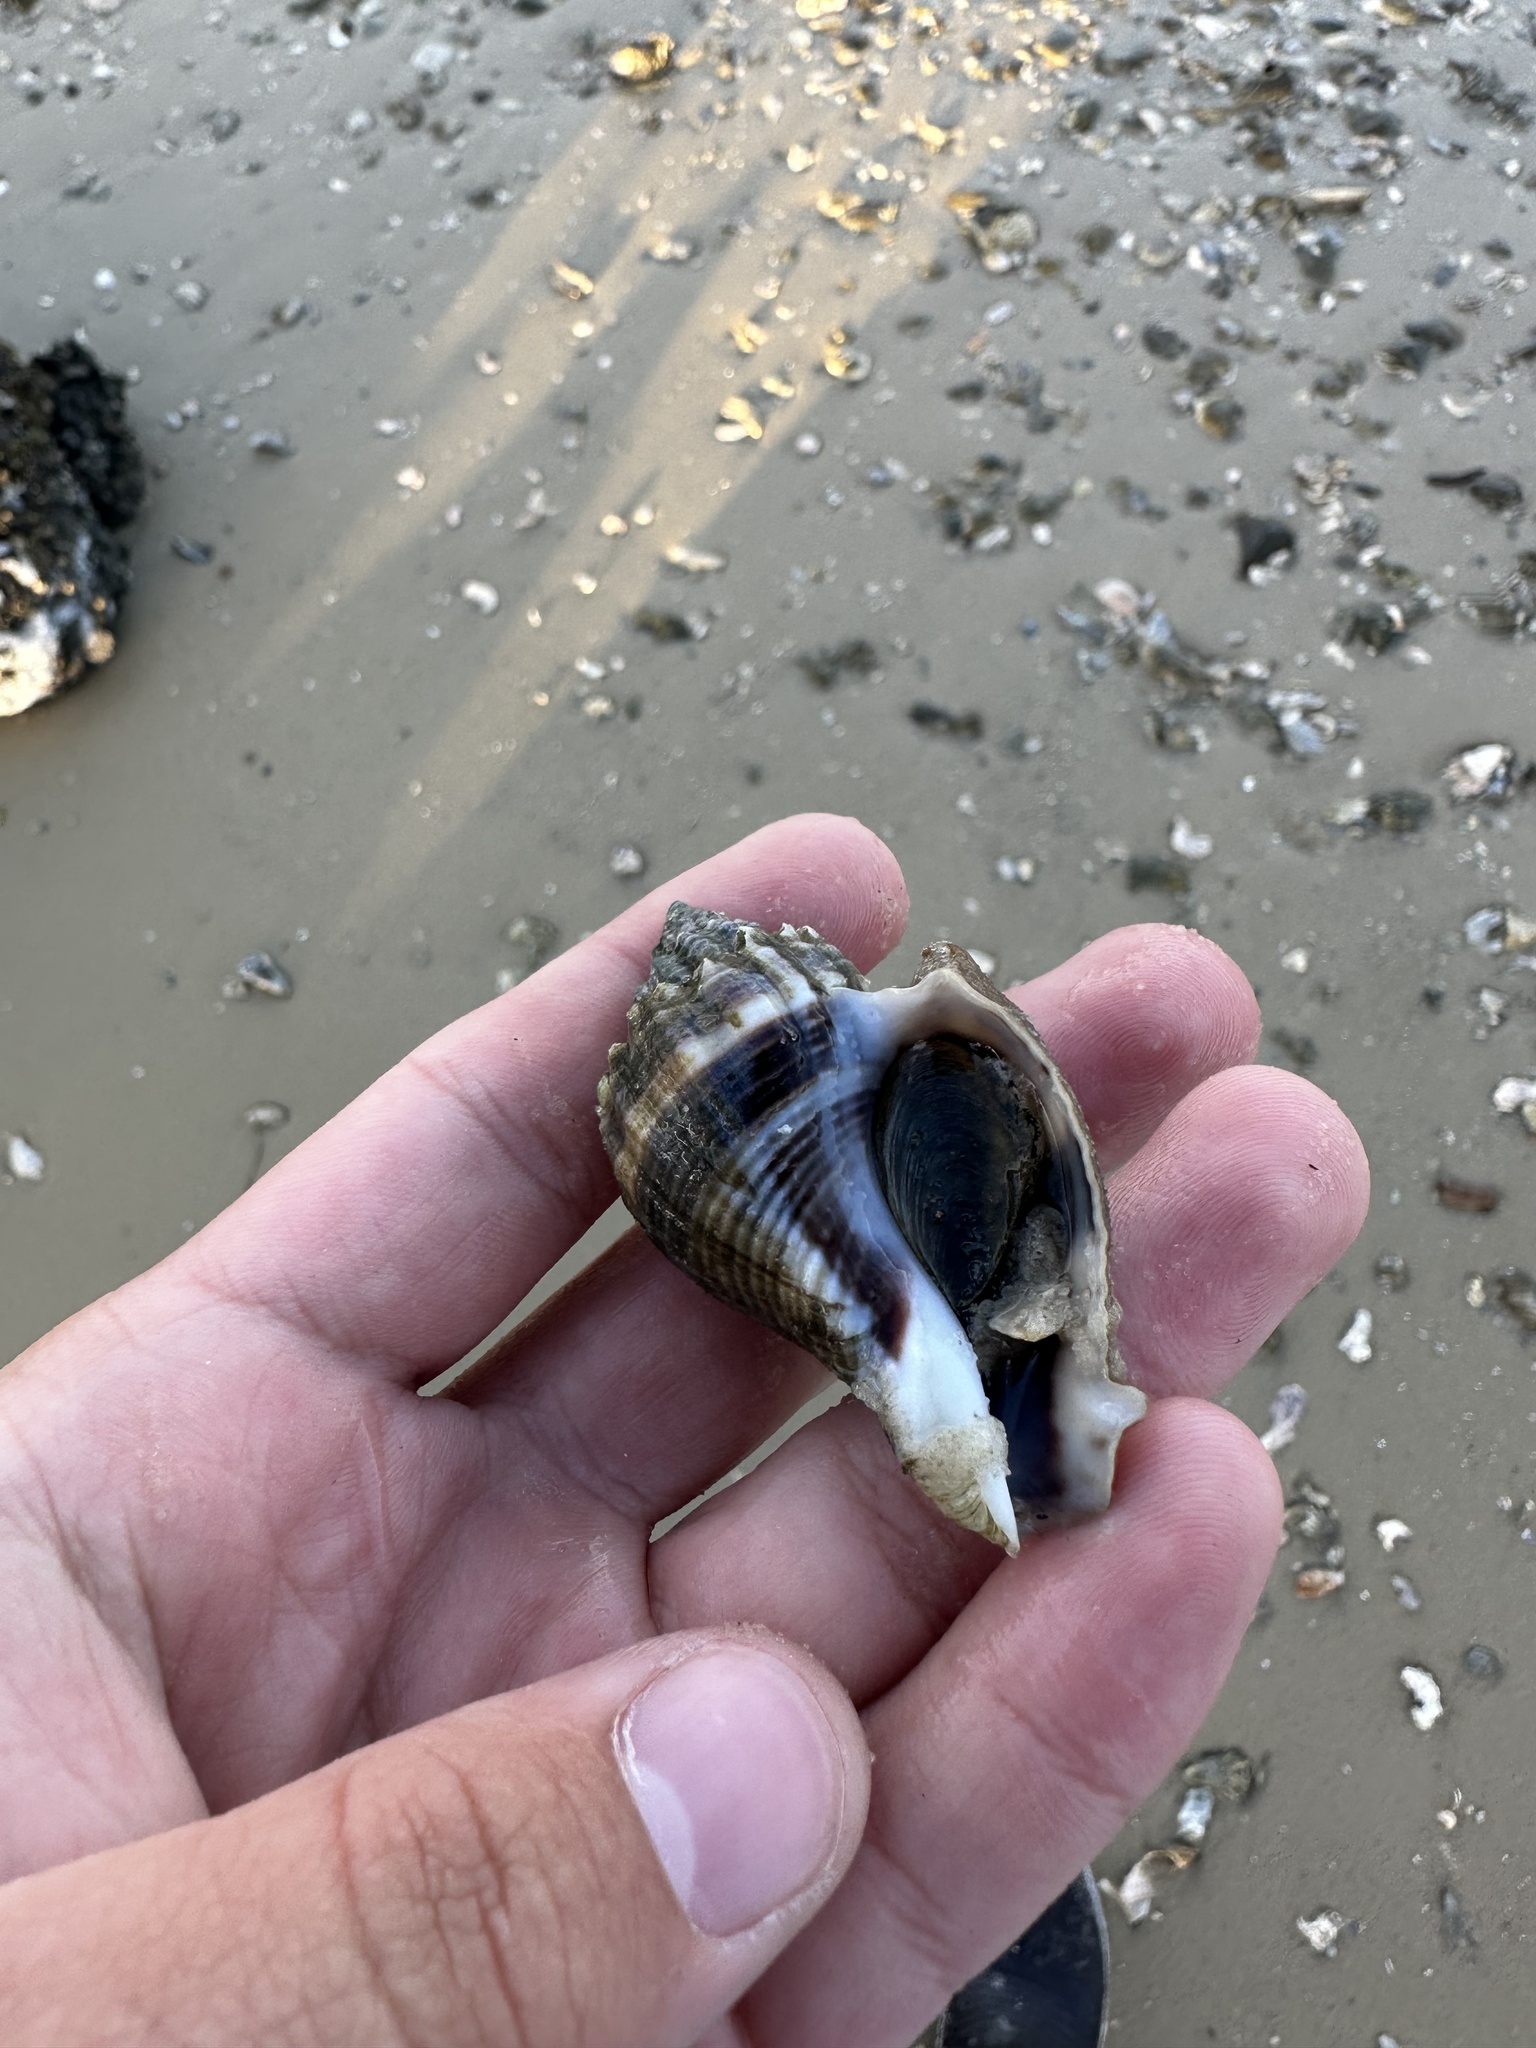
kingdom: Animalia
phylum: Mollusca
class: Gastropoda
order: Neogastropoda
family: Melongenidae
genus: Melongena
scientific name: Melongena corona
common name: American crown conch
